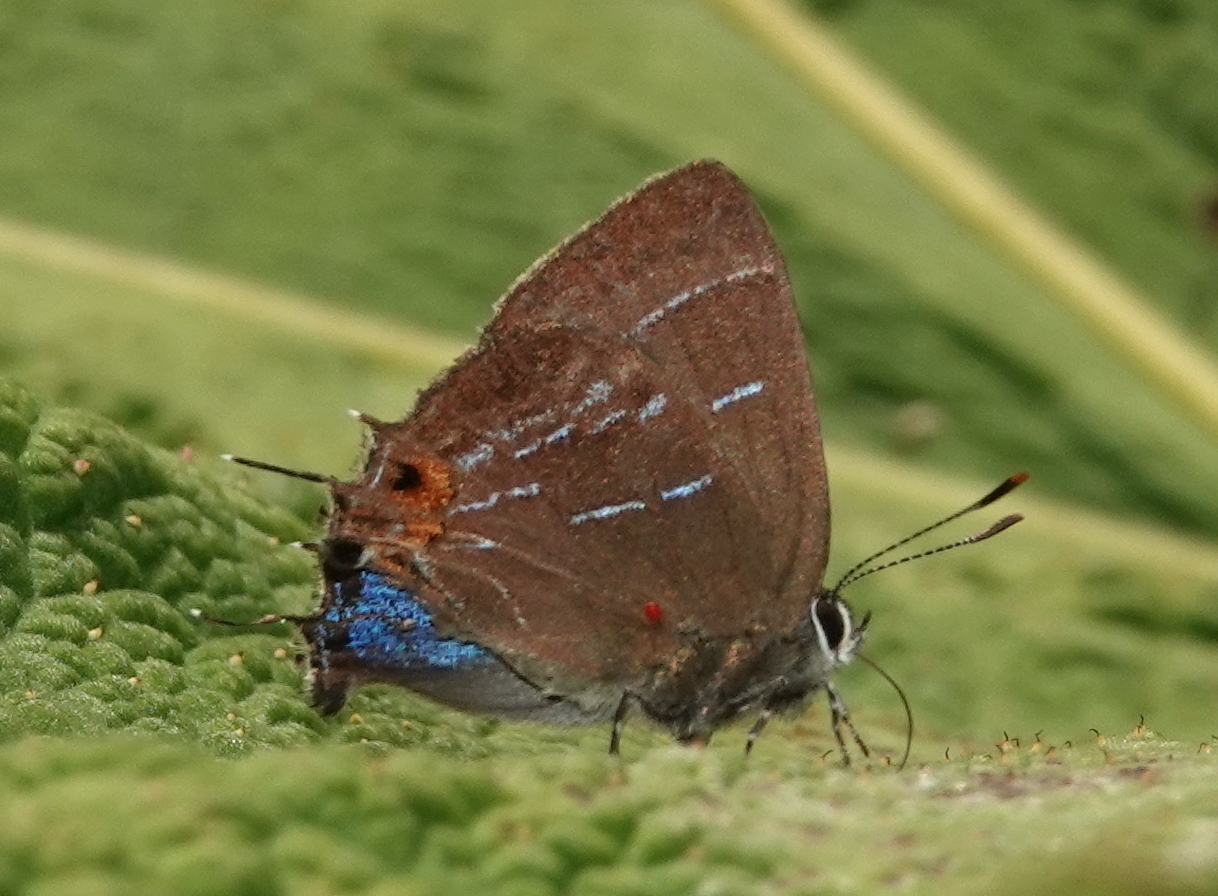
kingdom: Animalia
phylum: Arthropoda
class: Insecta
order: Lepidoptera
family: Lycaenidae
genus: Ocaria
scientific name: Ocaria aholiba
